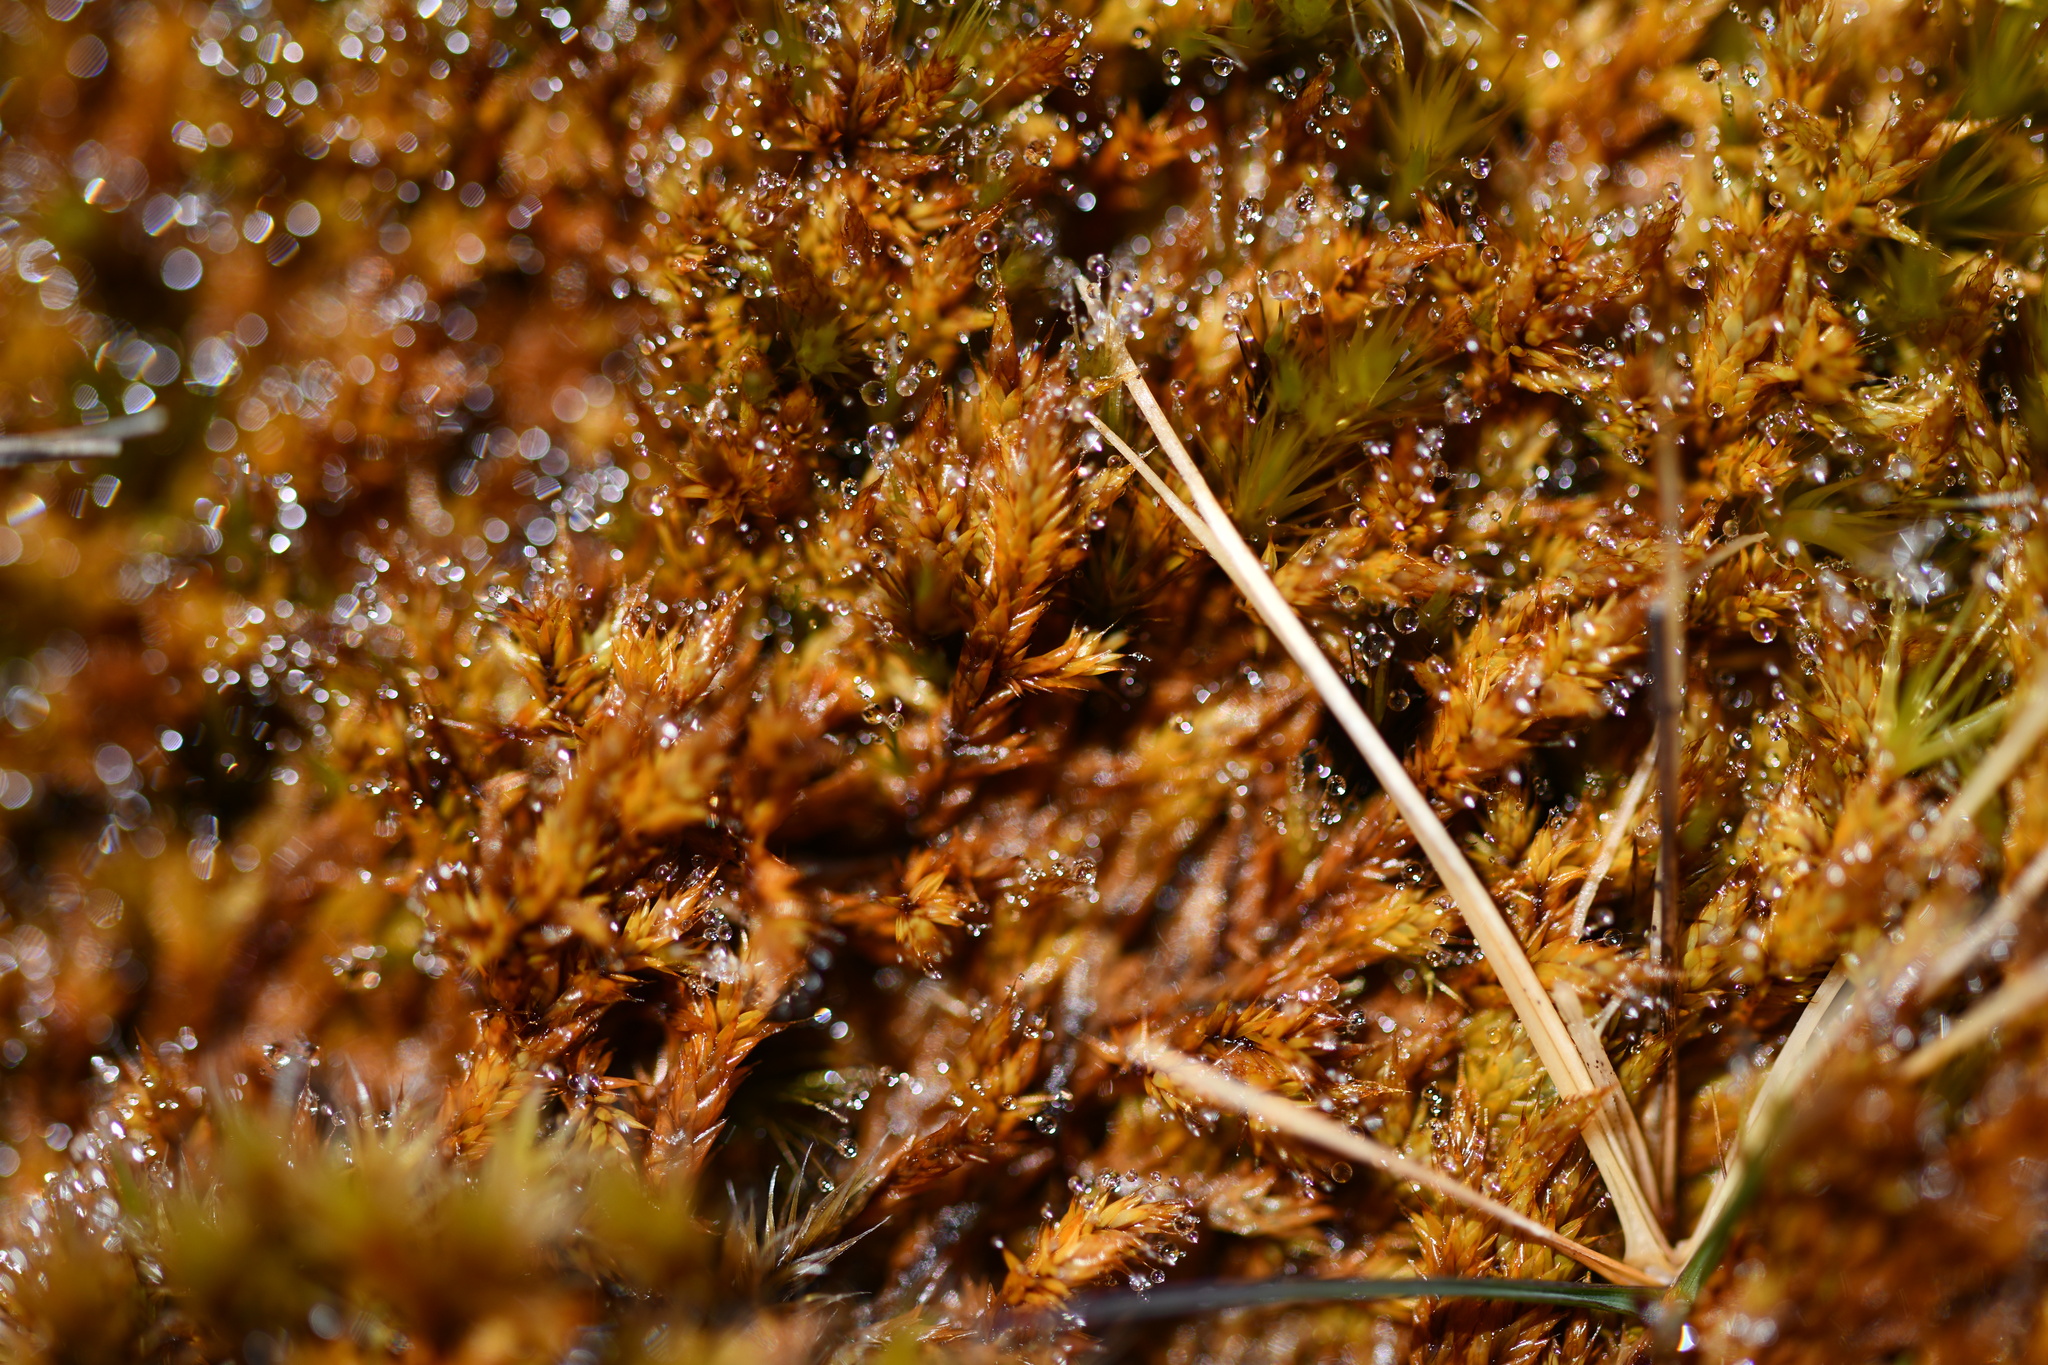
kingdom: Plantae
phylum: Bryophyta
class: Bryopsida
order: Hedwigiales
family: Hedwigiaceae
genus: Rhacocarpus
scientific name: Rhacocarpus purpurascens
